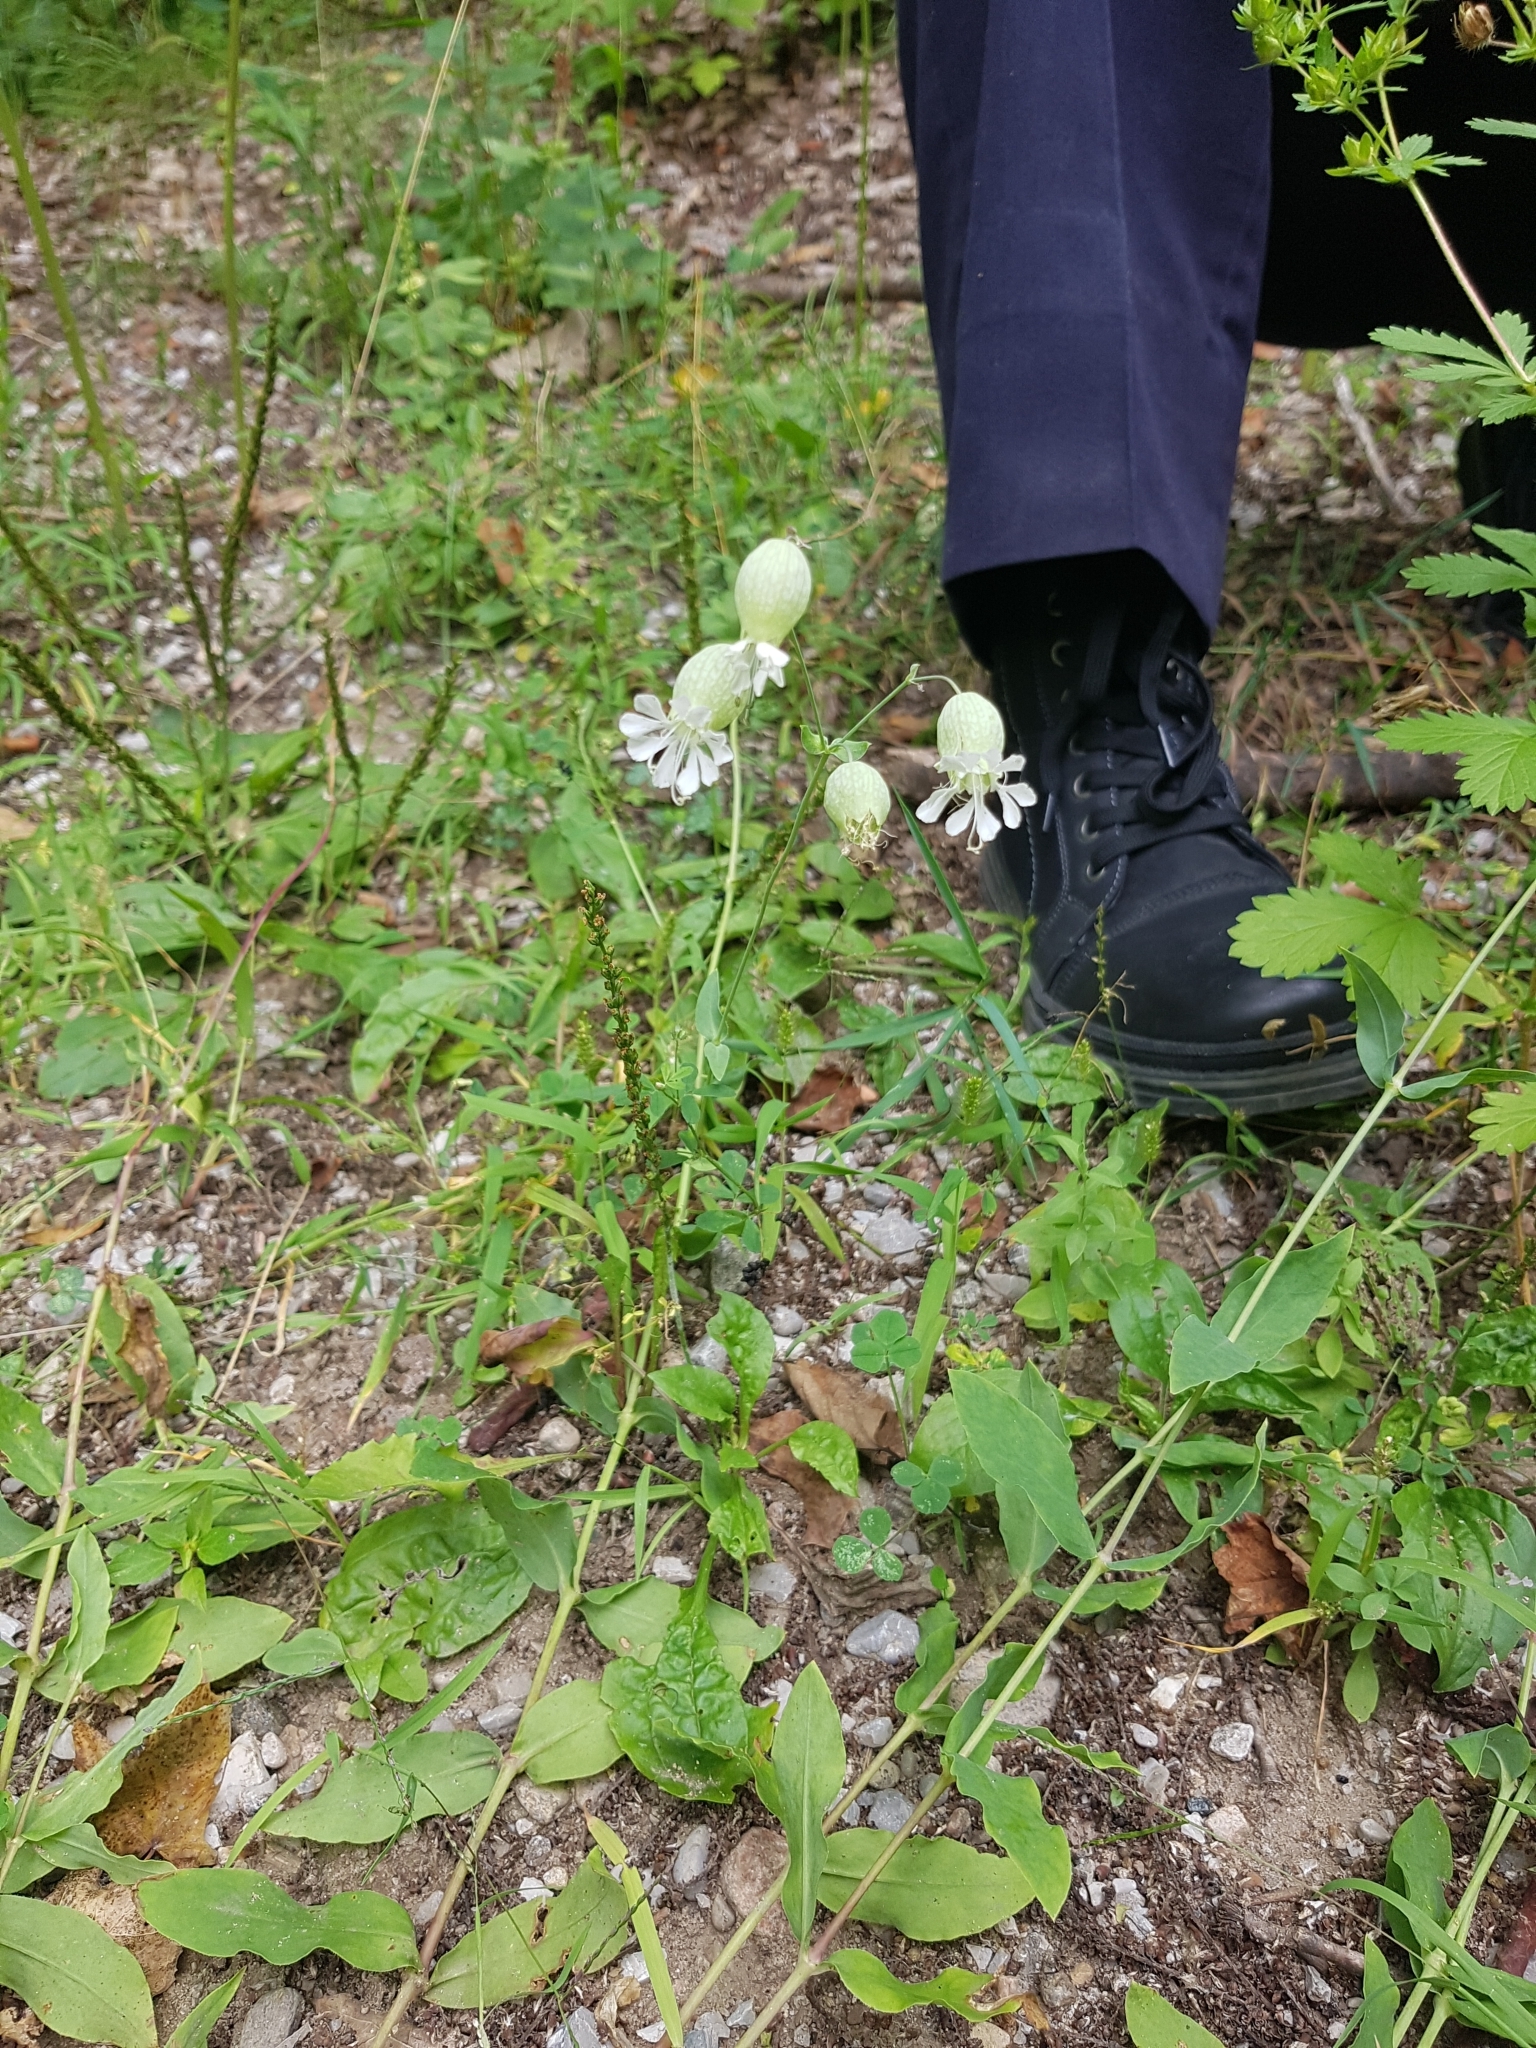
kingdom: Plantae
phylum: Tracheophyta
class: Magnoliopsida
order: Caryophyllales
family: Caryophyllaceae
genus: Silene
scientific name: Silene vulgaris
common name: Bladder campion
